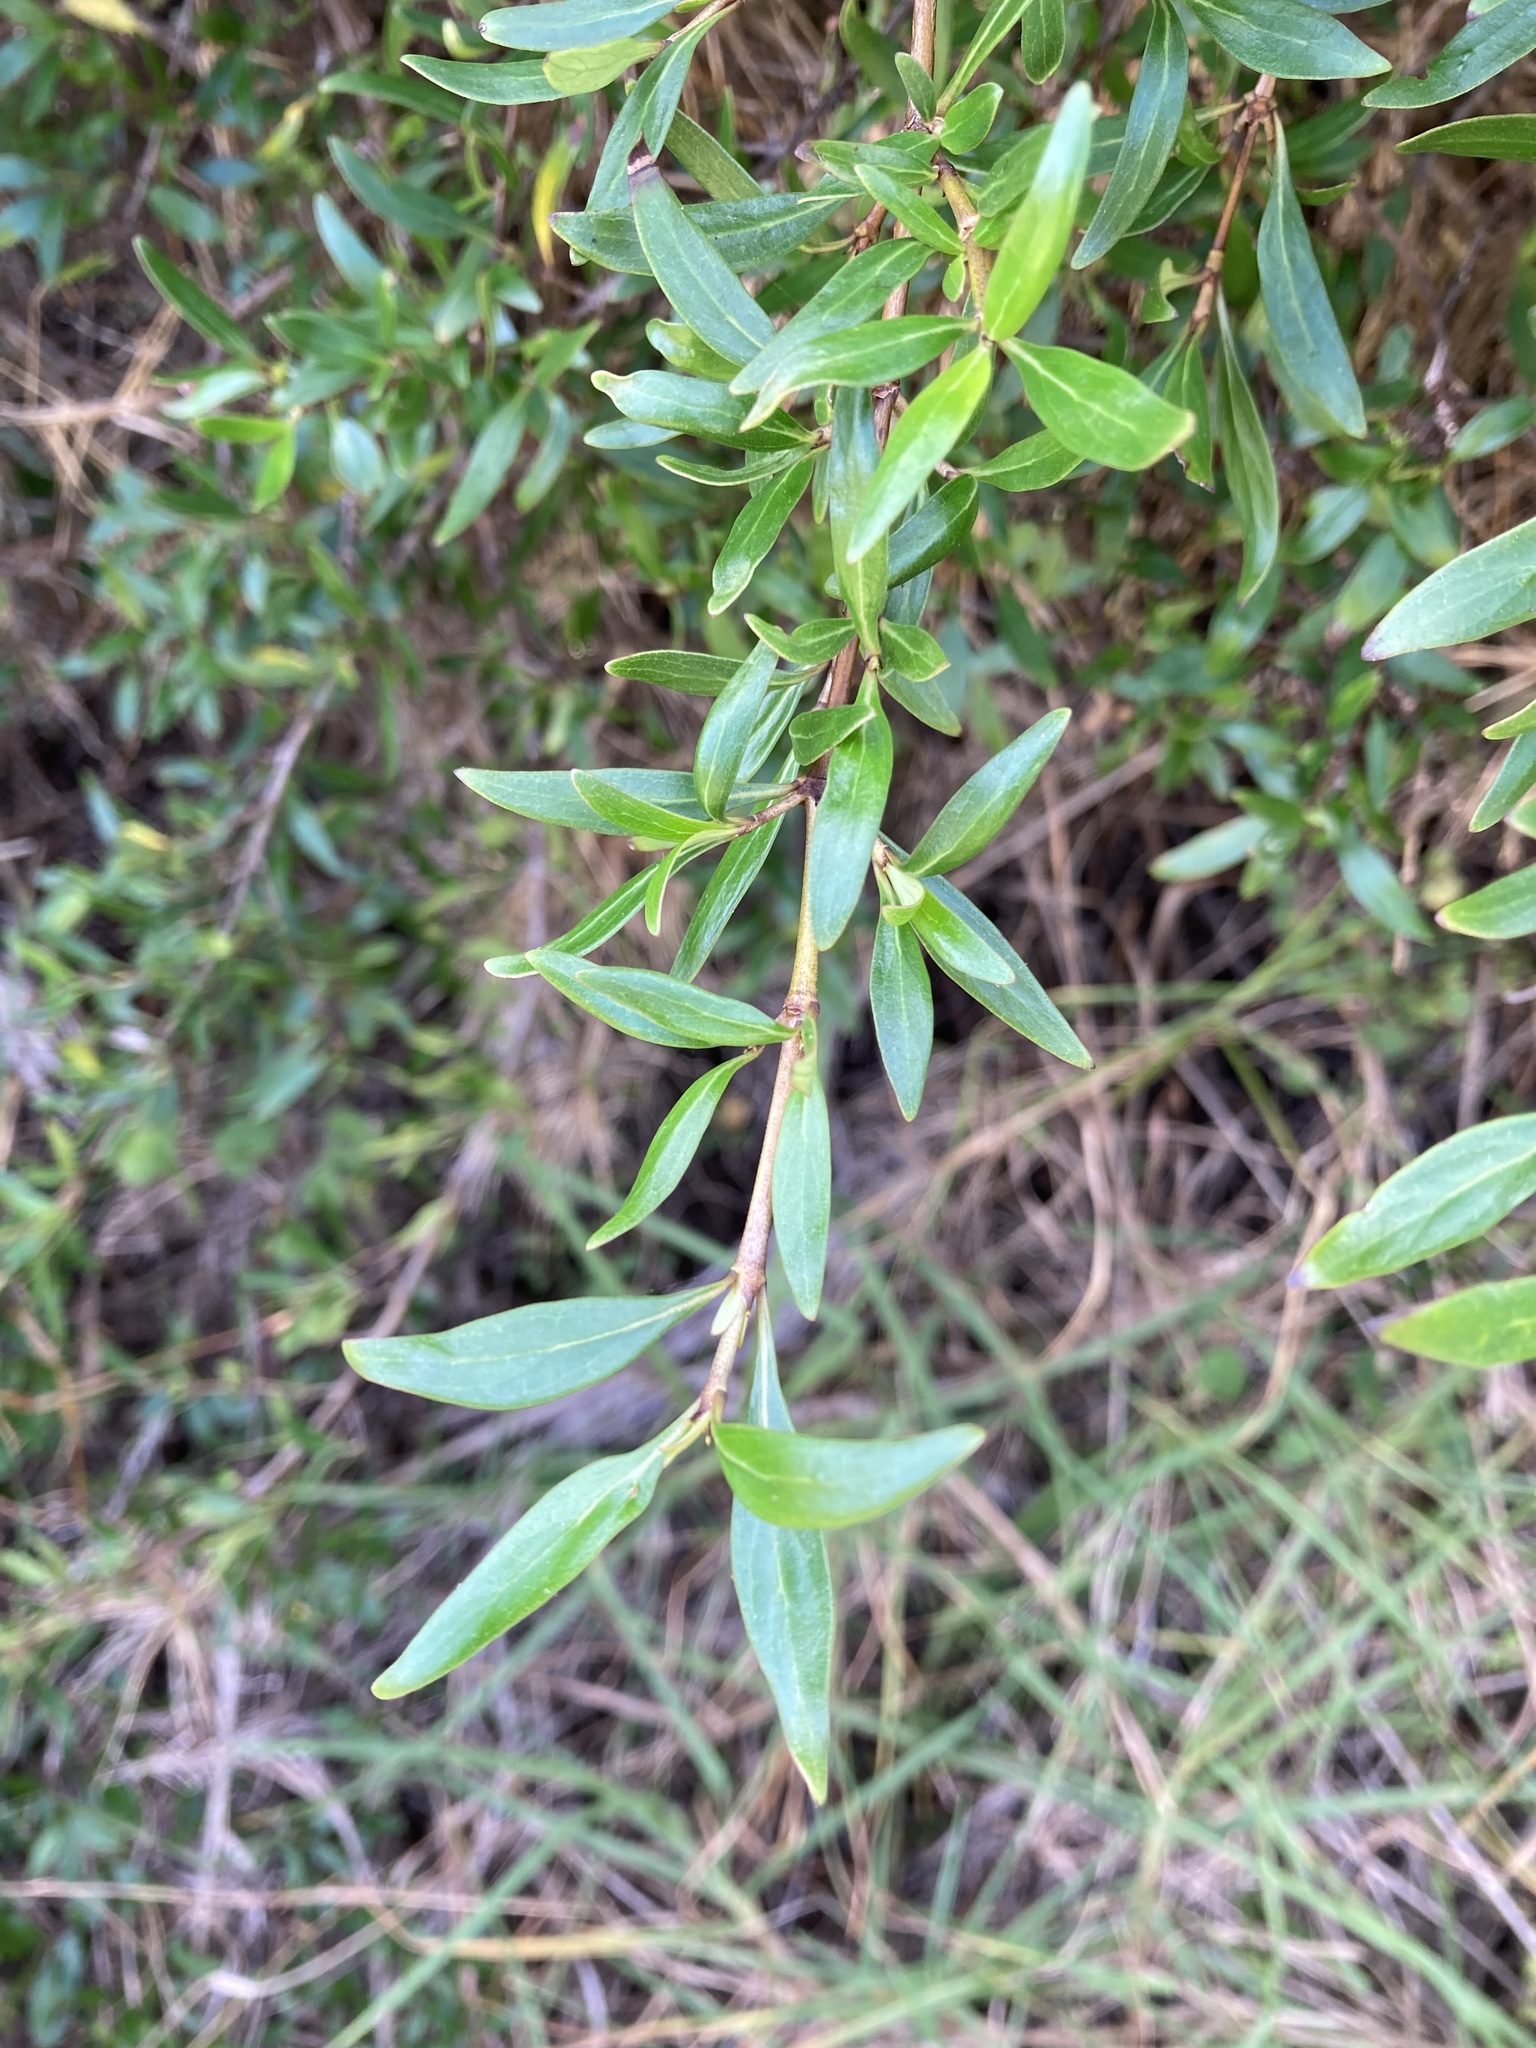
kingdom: Plantae
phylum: Tracheophyta
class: Magnoliopsida
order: Gentianales
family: Rubiaceae
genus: Coprosma
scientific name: Coprosma cunninghamii
